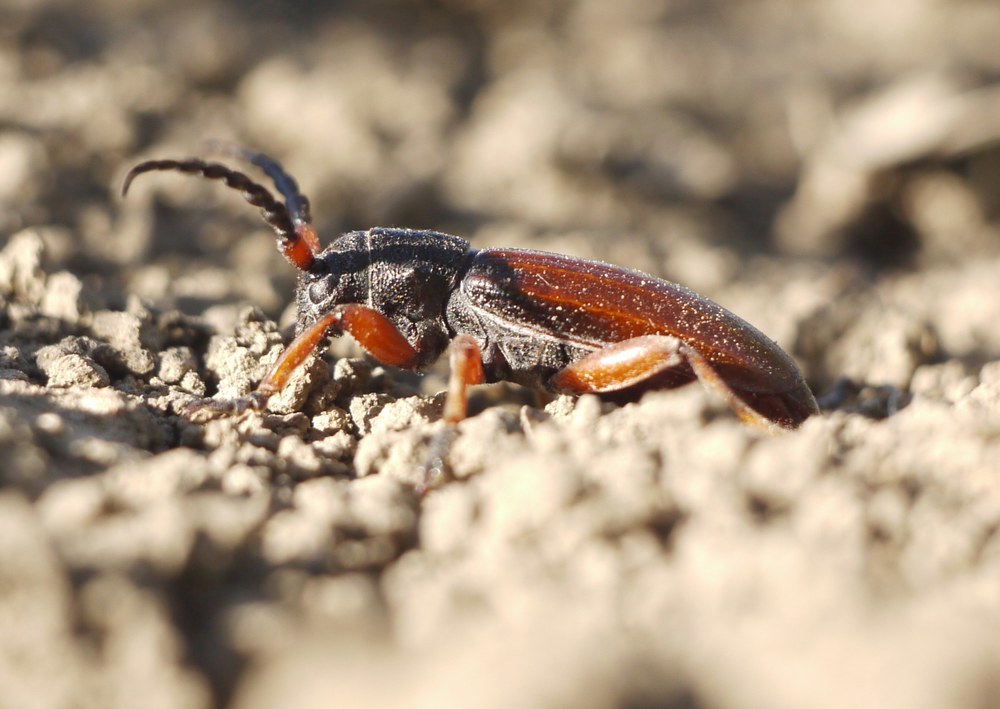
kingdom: Animalia
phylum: Arthropoda
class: Insecta
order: Coleoptera
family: Cerambycidae
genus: Dorcadion
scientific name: Dorcadion fulvum
